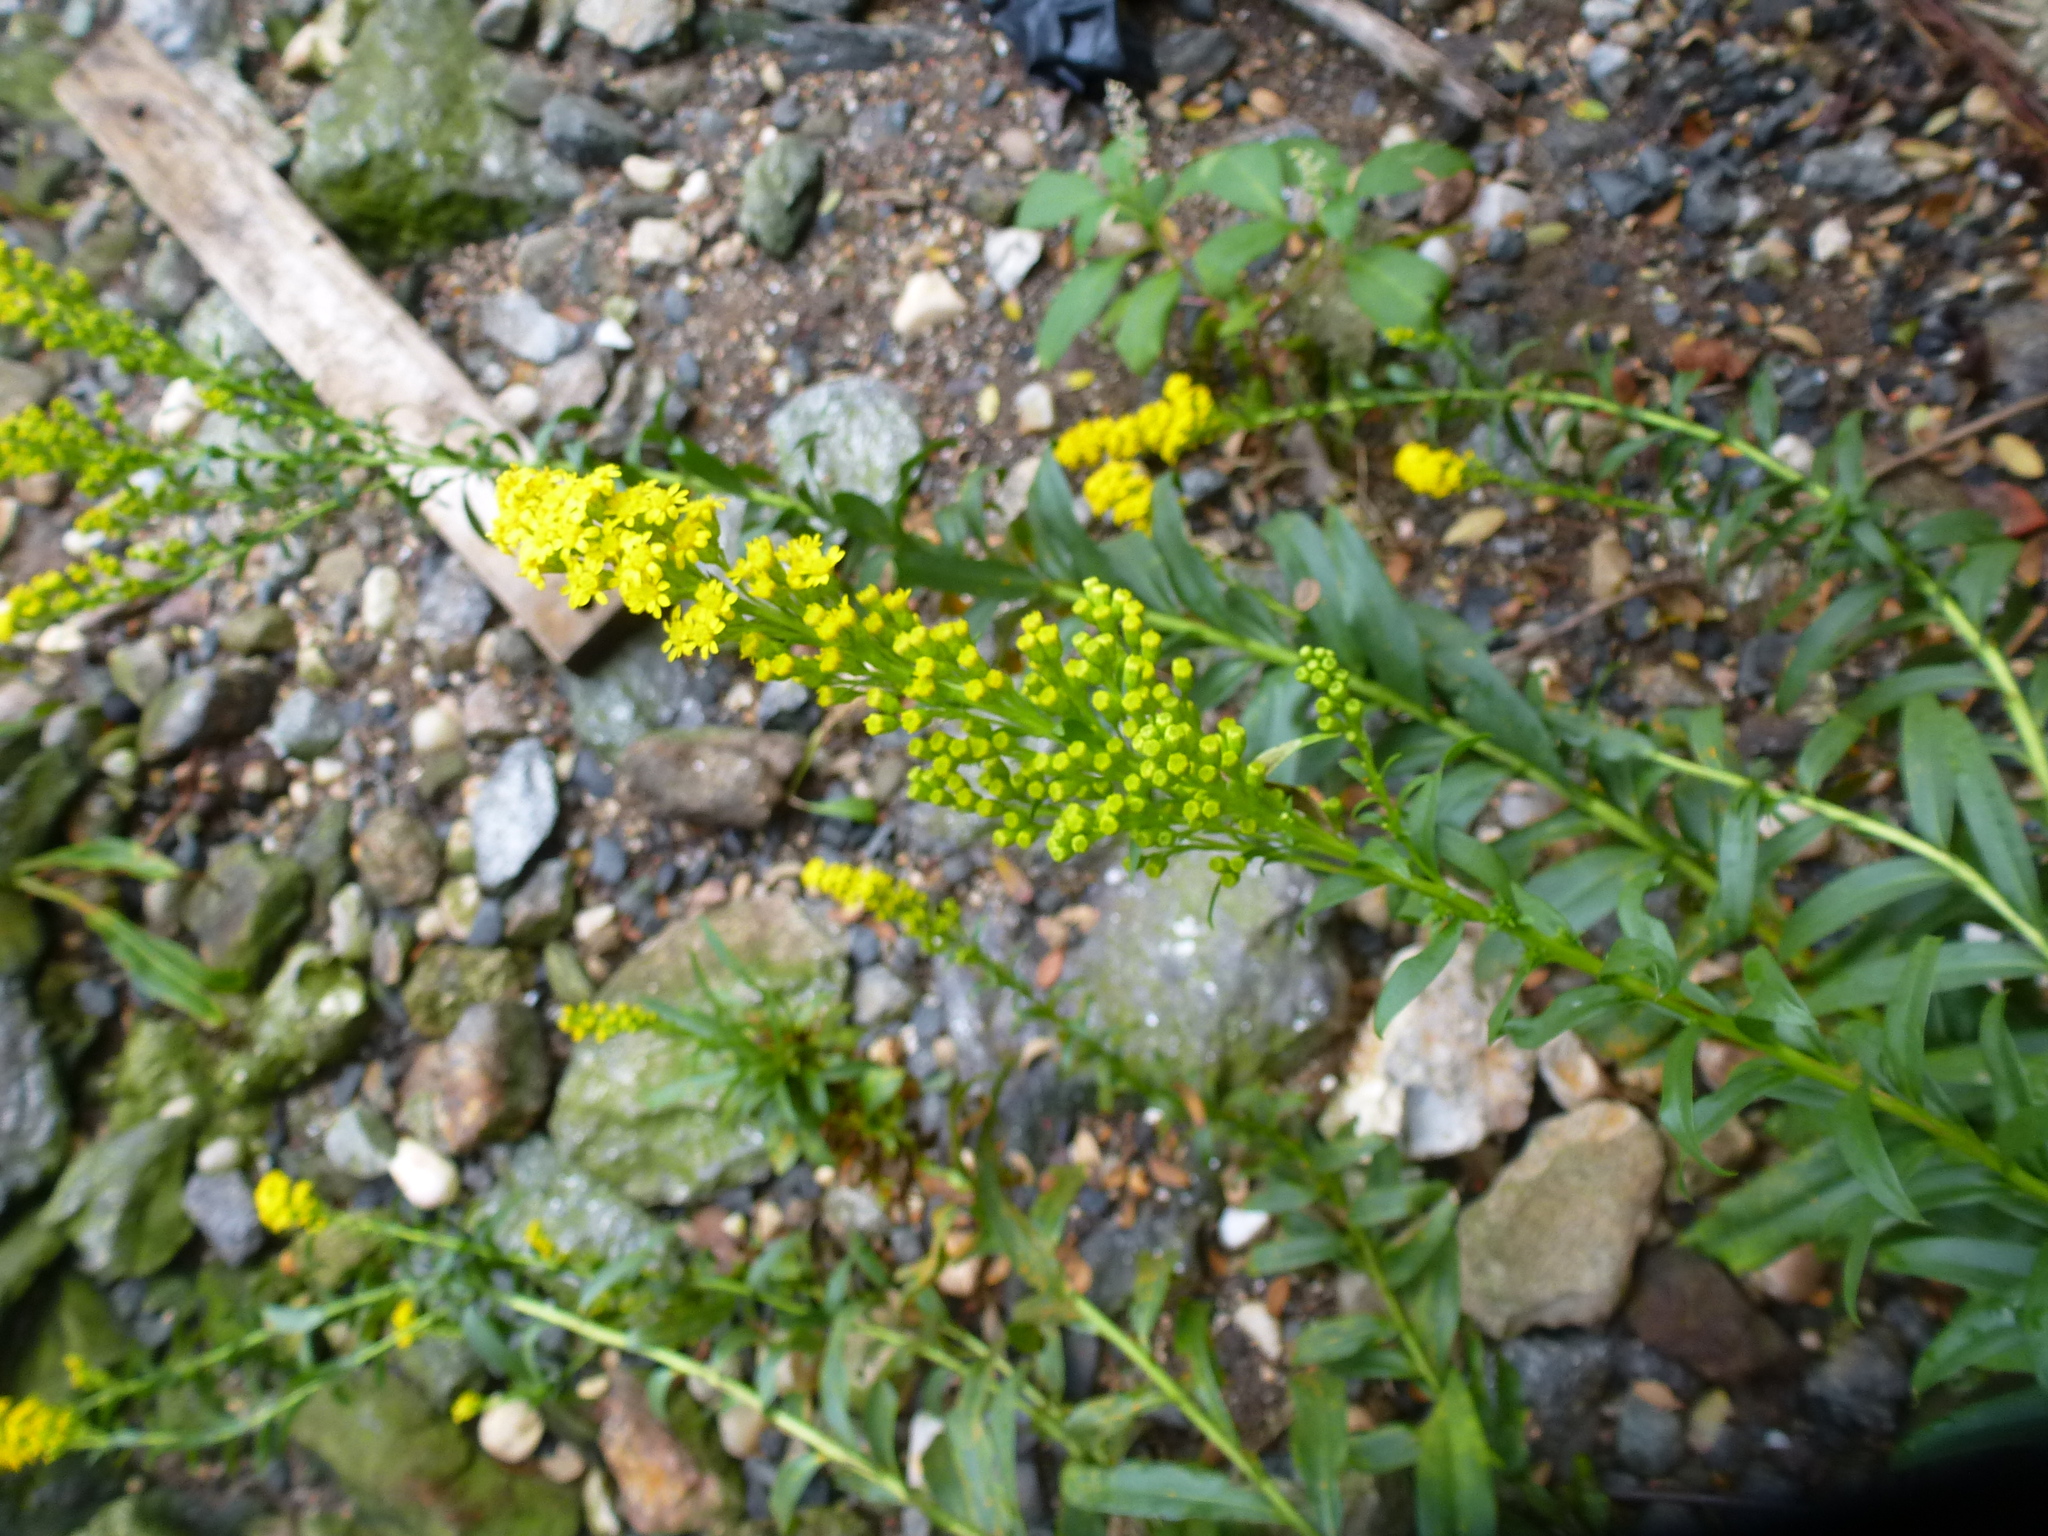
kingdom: Plantae
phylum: Tracheophyta
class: Magnoliopsida
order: Asterales
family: Asteraceae
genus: Solidago
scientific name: Solidago sempervirens
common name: Salt-marsh goldenrod
